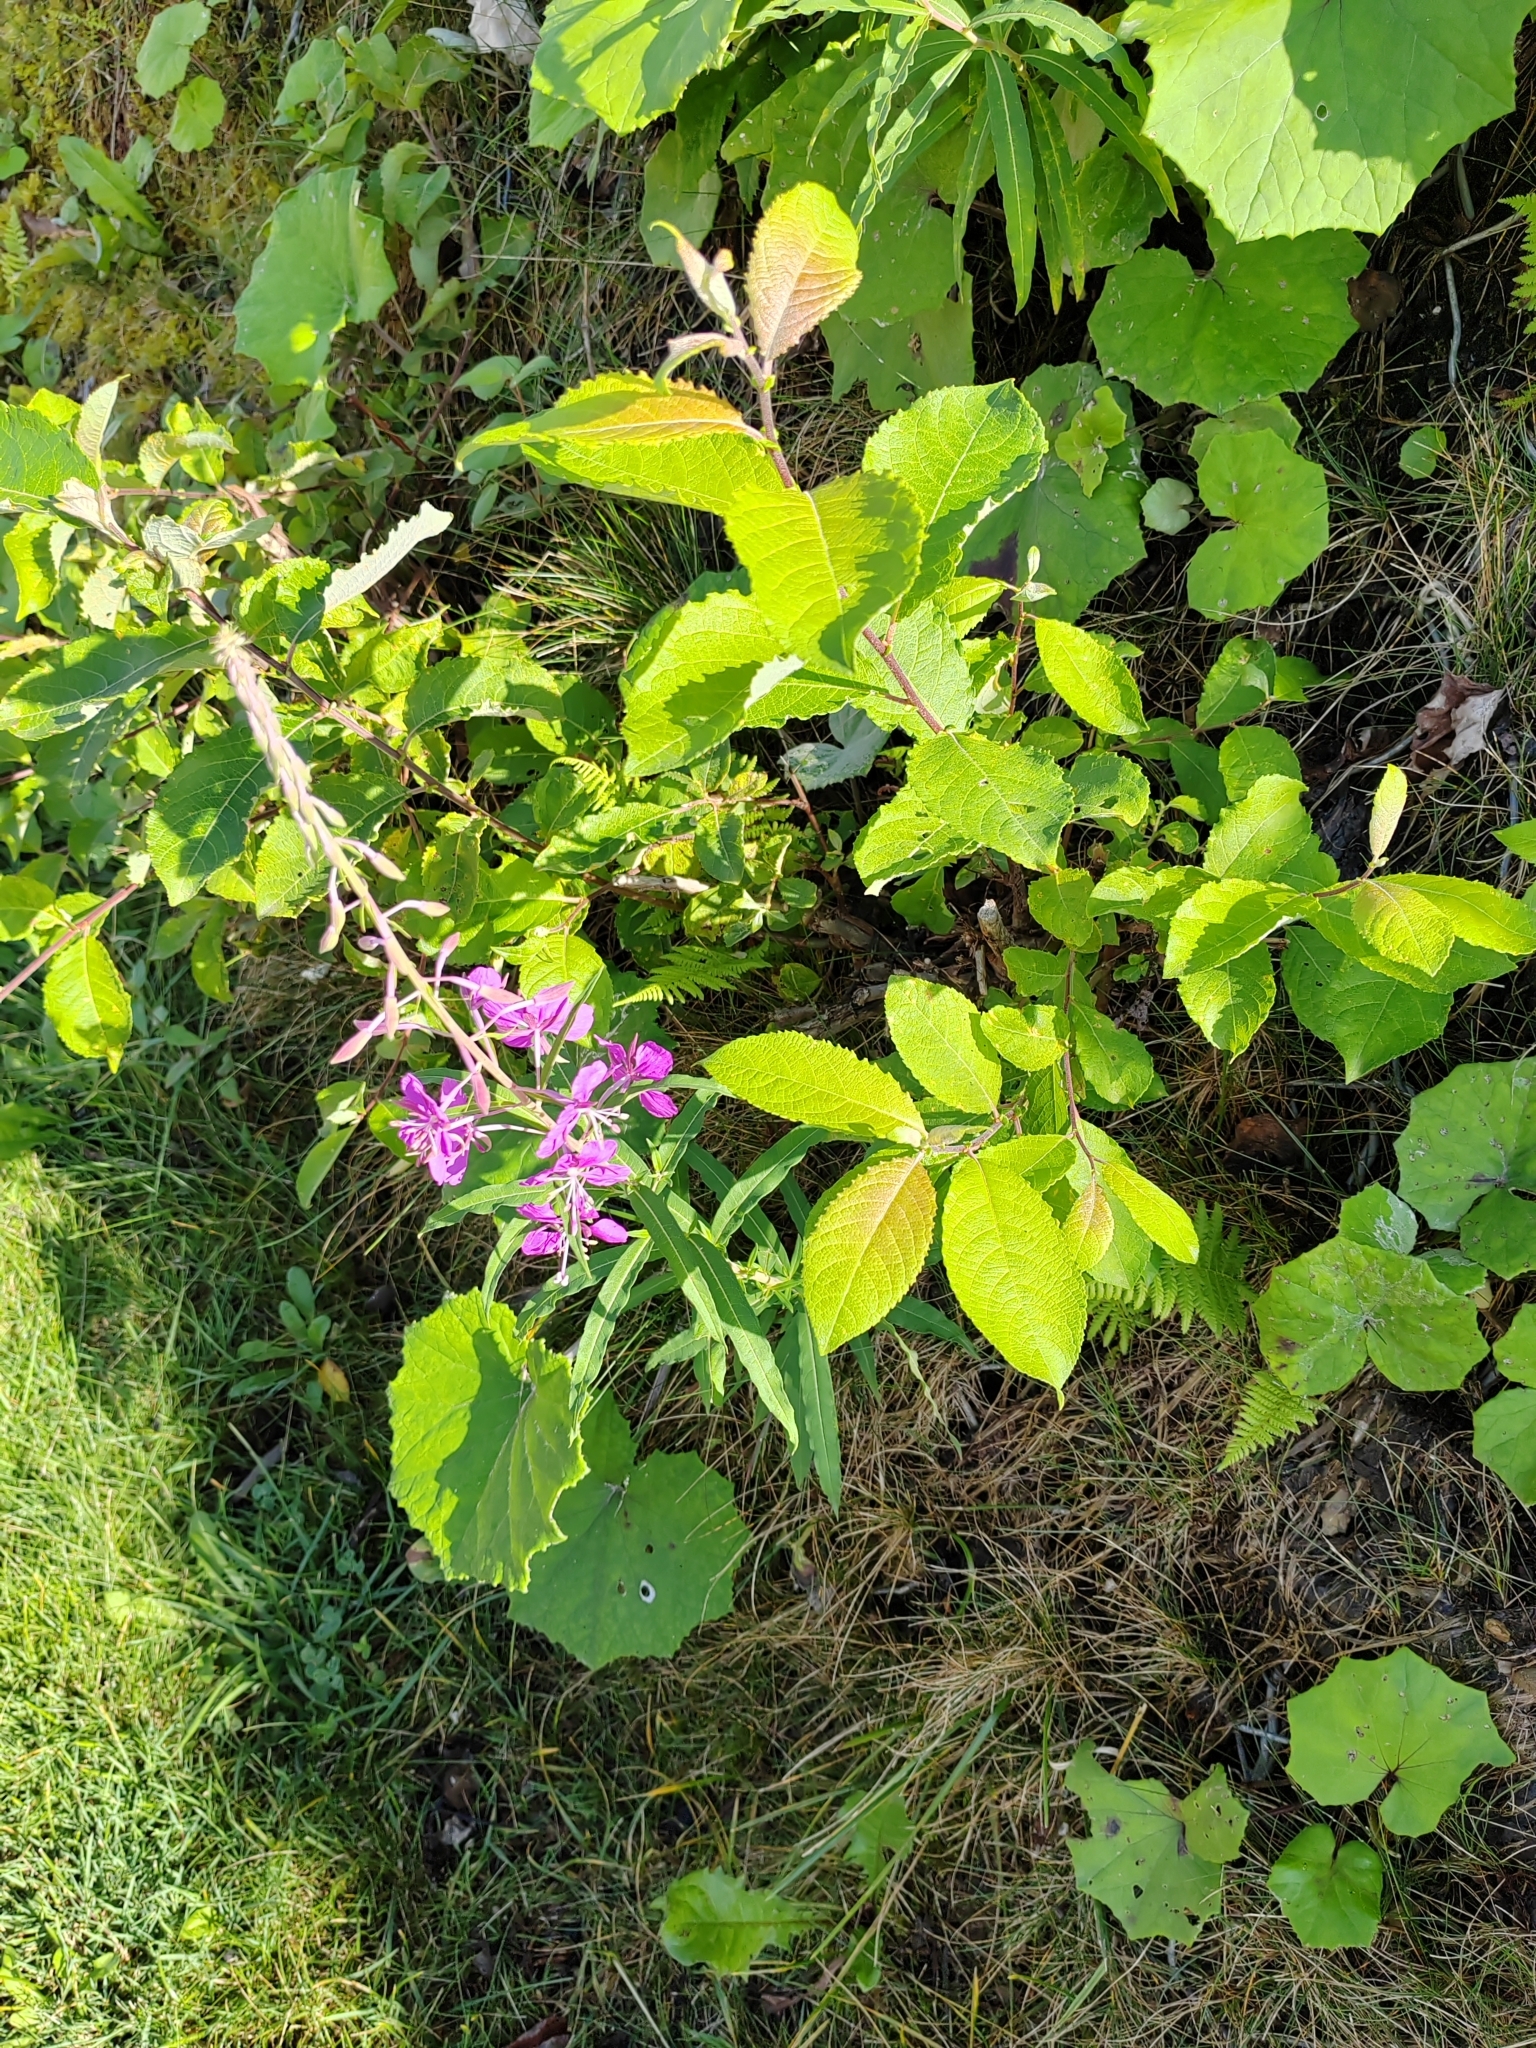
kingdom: Plantae
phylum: Tracheophyta
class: Magnoliopsida
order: Myrtales
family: Onagraceae
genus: Chamaenerion
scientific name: Chamaenerion angustifolium
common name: Fireweed
